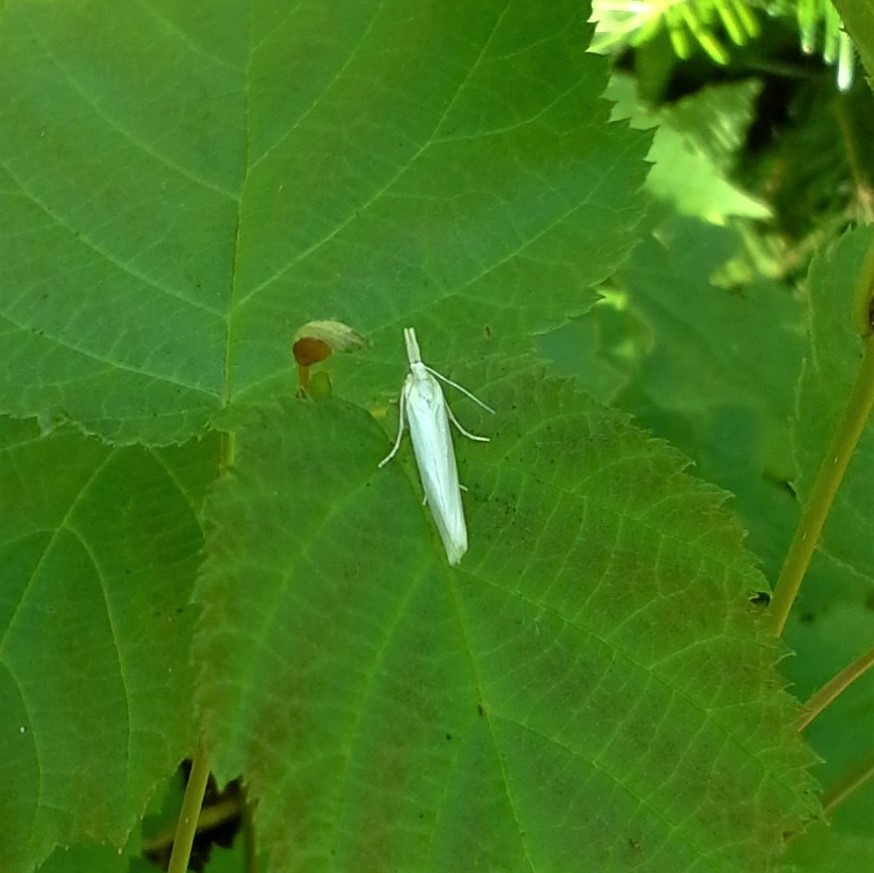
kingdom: Animalia
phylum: Arthropoda
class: Insecta
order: Lepidoptera
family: Crambidae
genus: Crambus
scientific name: Crambus perlellus
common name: Yellow satin veneer
